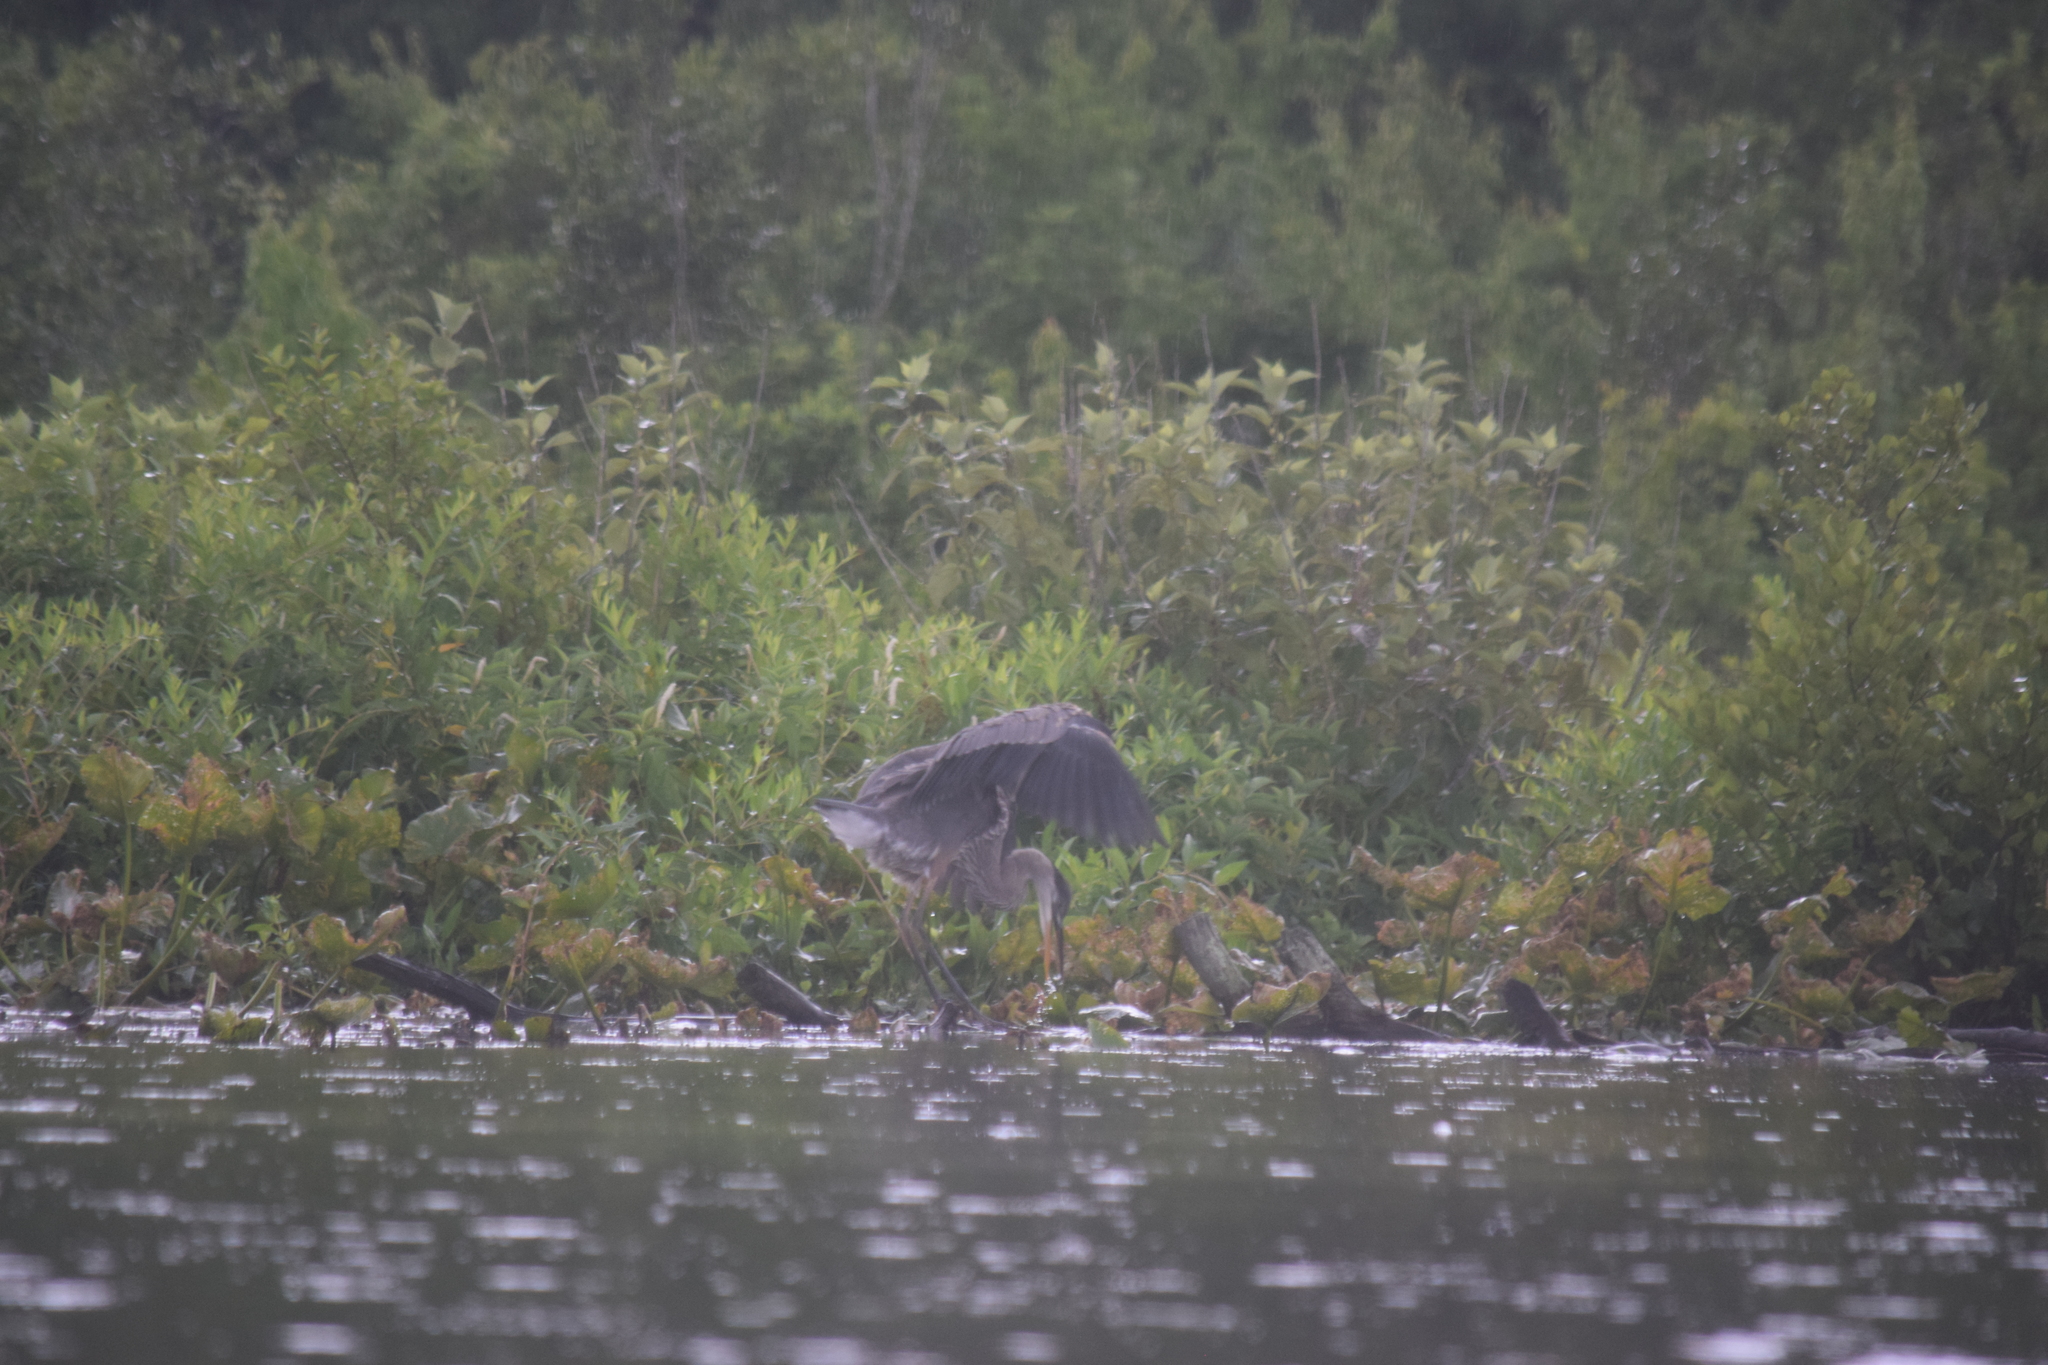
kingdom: Animalia
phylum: Chordata
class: Aves
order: Pelecaniformes
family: Ardeidae
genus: Ardea
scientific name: Ardea herodias
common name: Great blue heron
